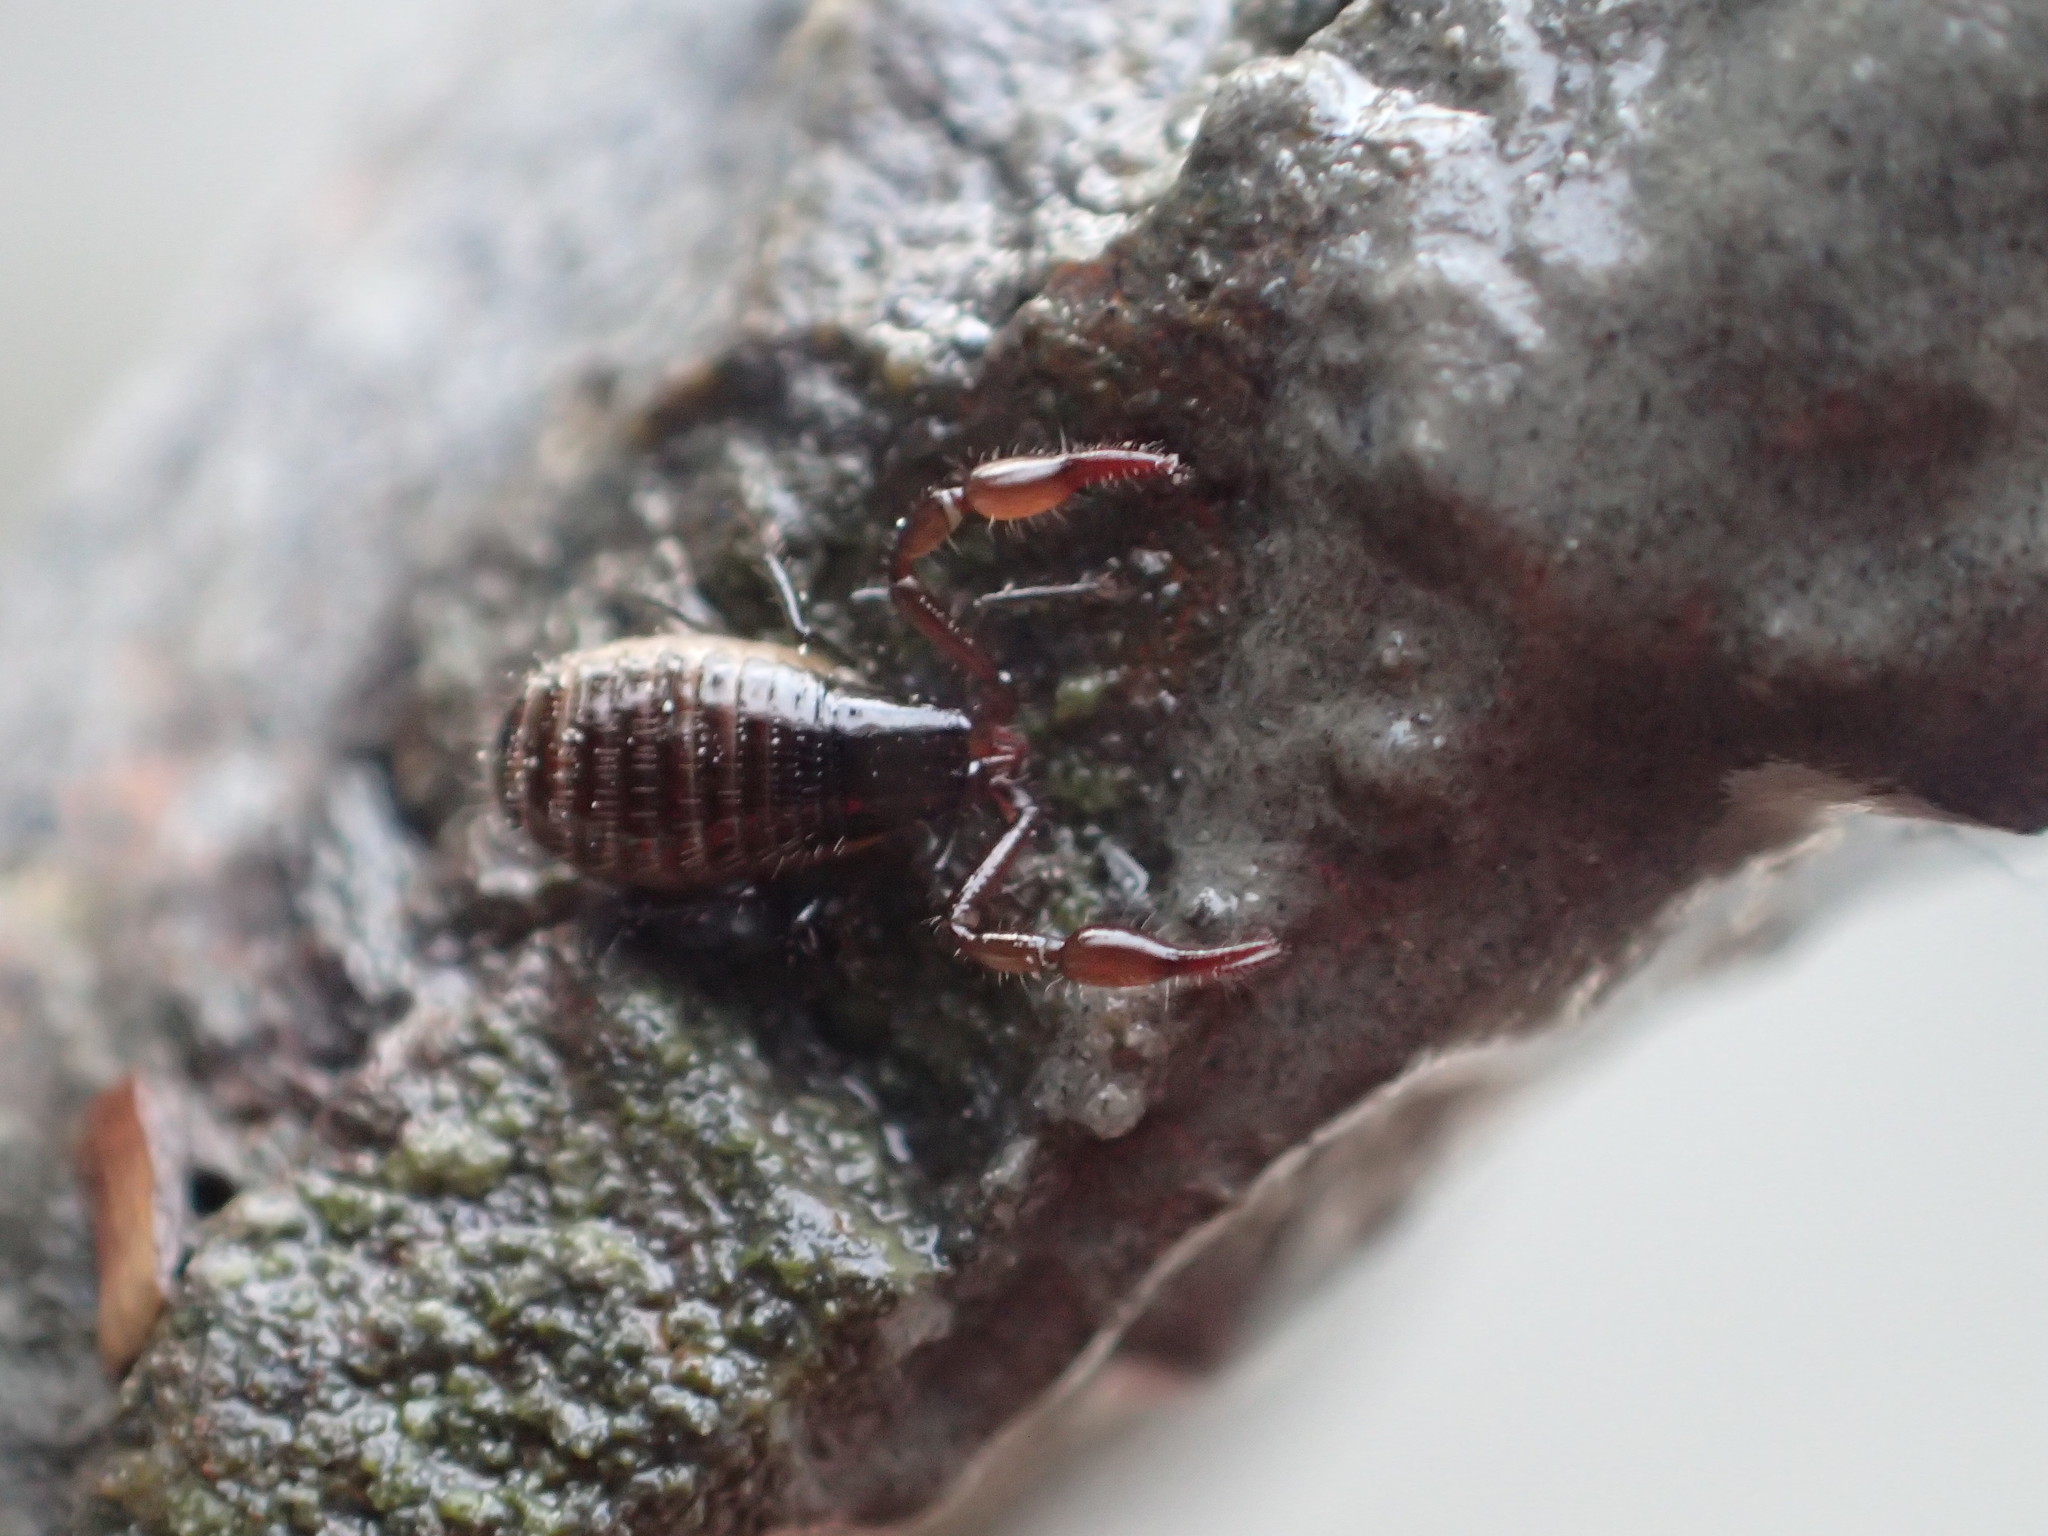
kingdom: Animalia
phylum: Arthropoda
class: Arachnida
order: Pseudoscorpiones
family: Neobisiidae
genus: Halobisium
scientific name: Halobisium occidentale
